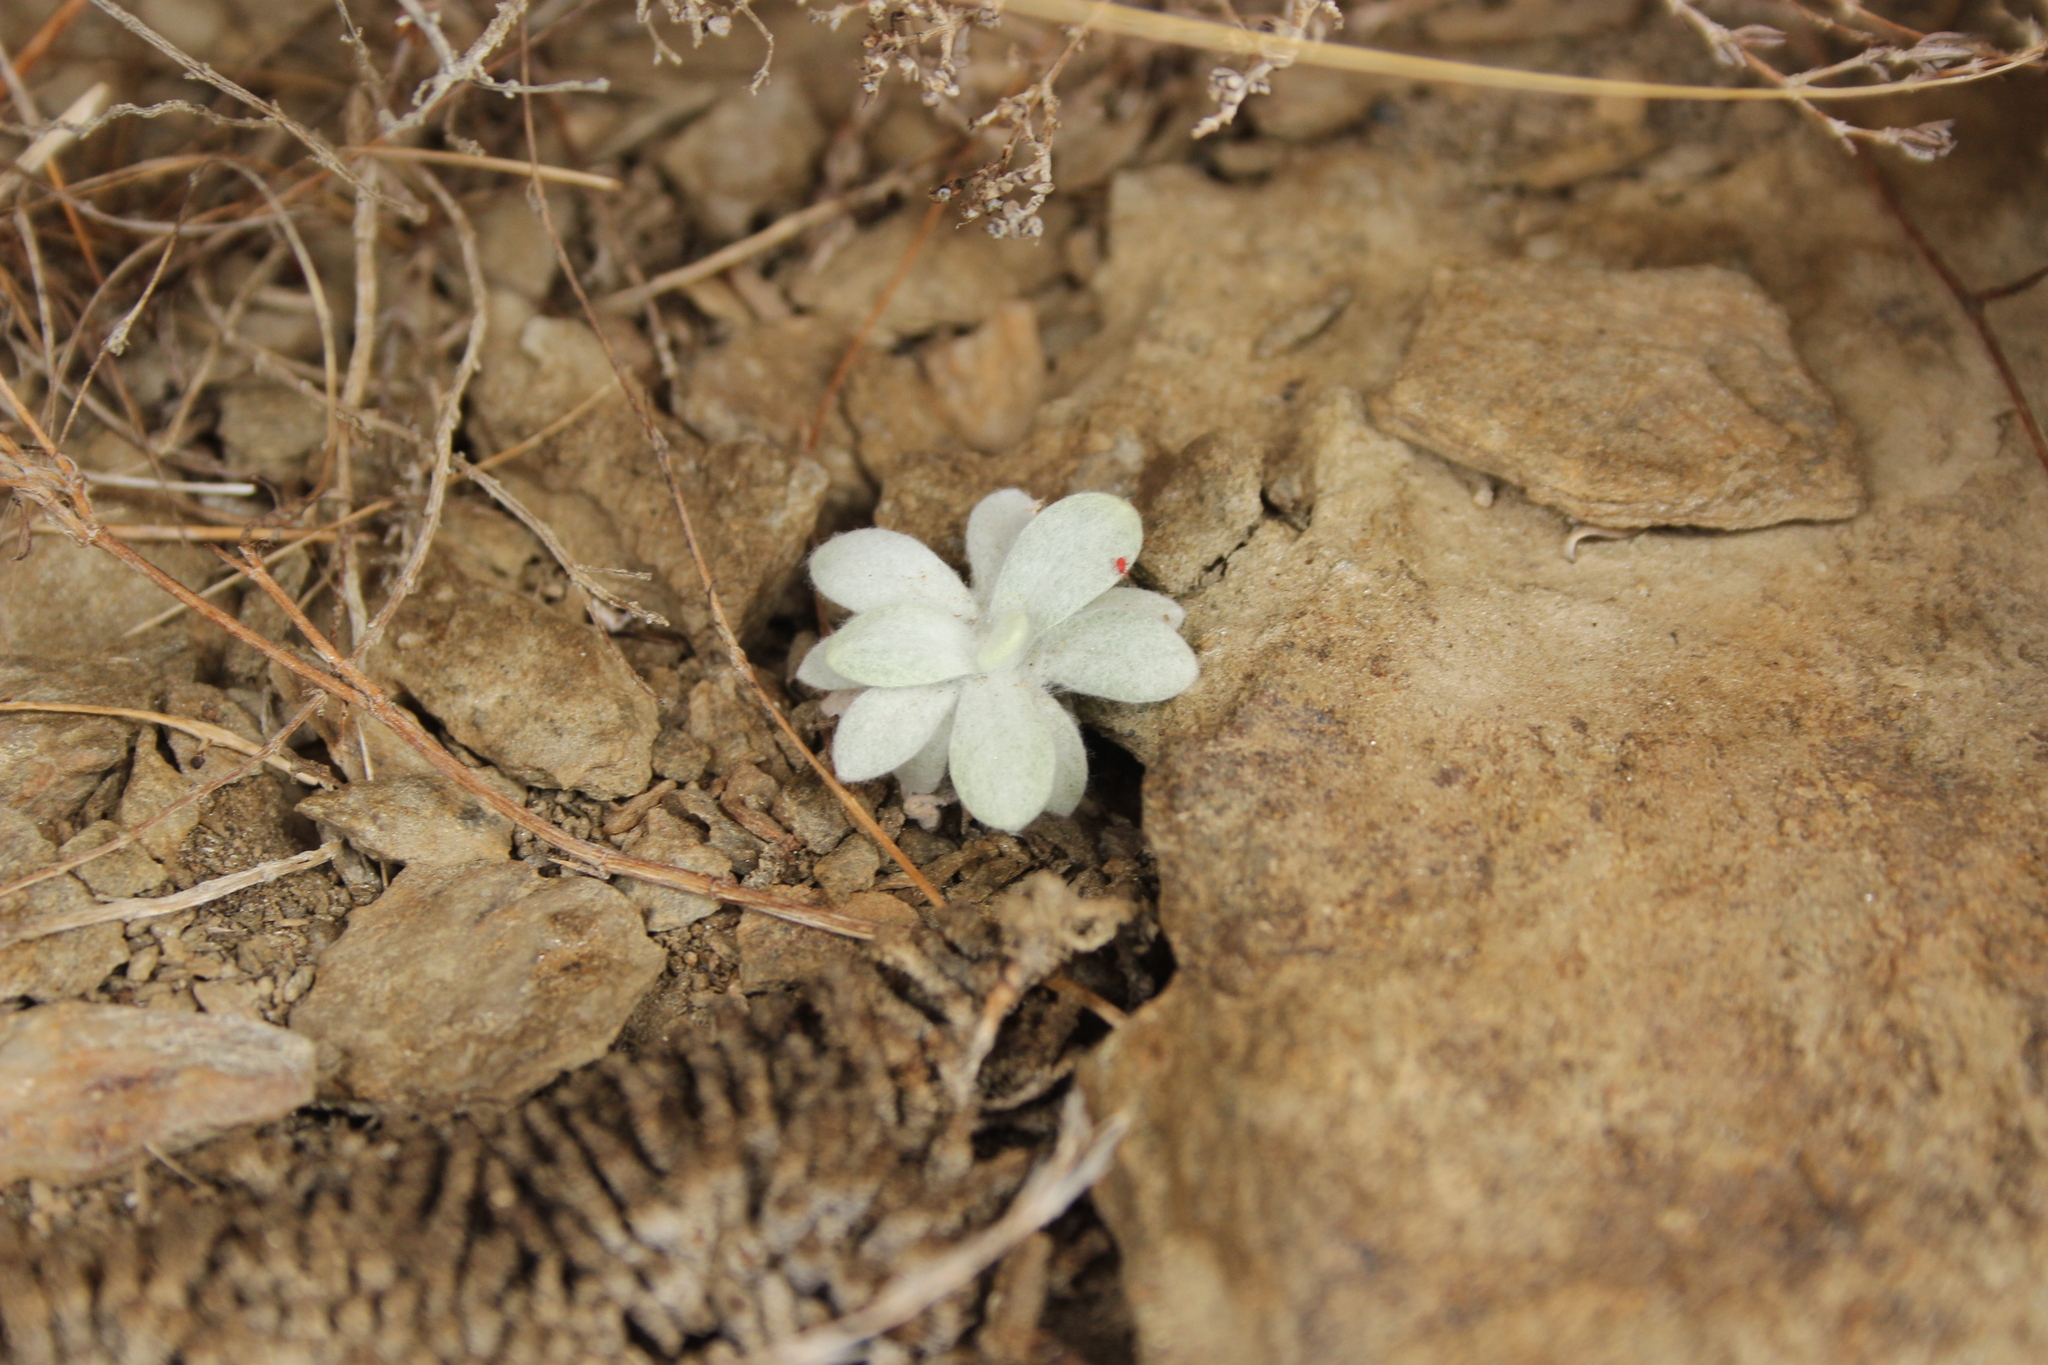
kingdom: Plantae
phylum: Tracheophyta
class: Magnoliopsida
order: Asterales
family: Asteraceae
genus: Pseudognaphalium
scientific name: Pseudognaphalium
